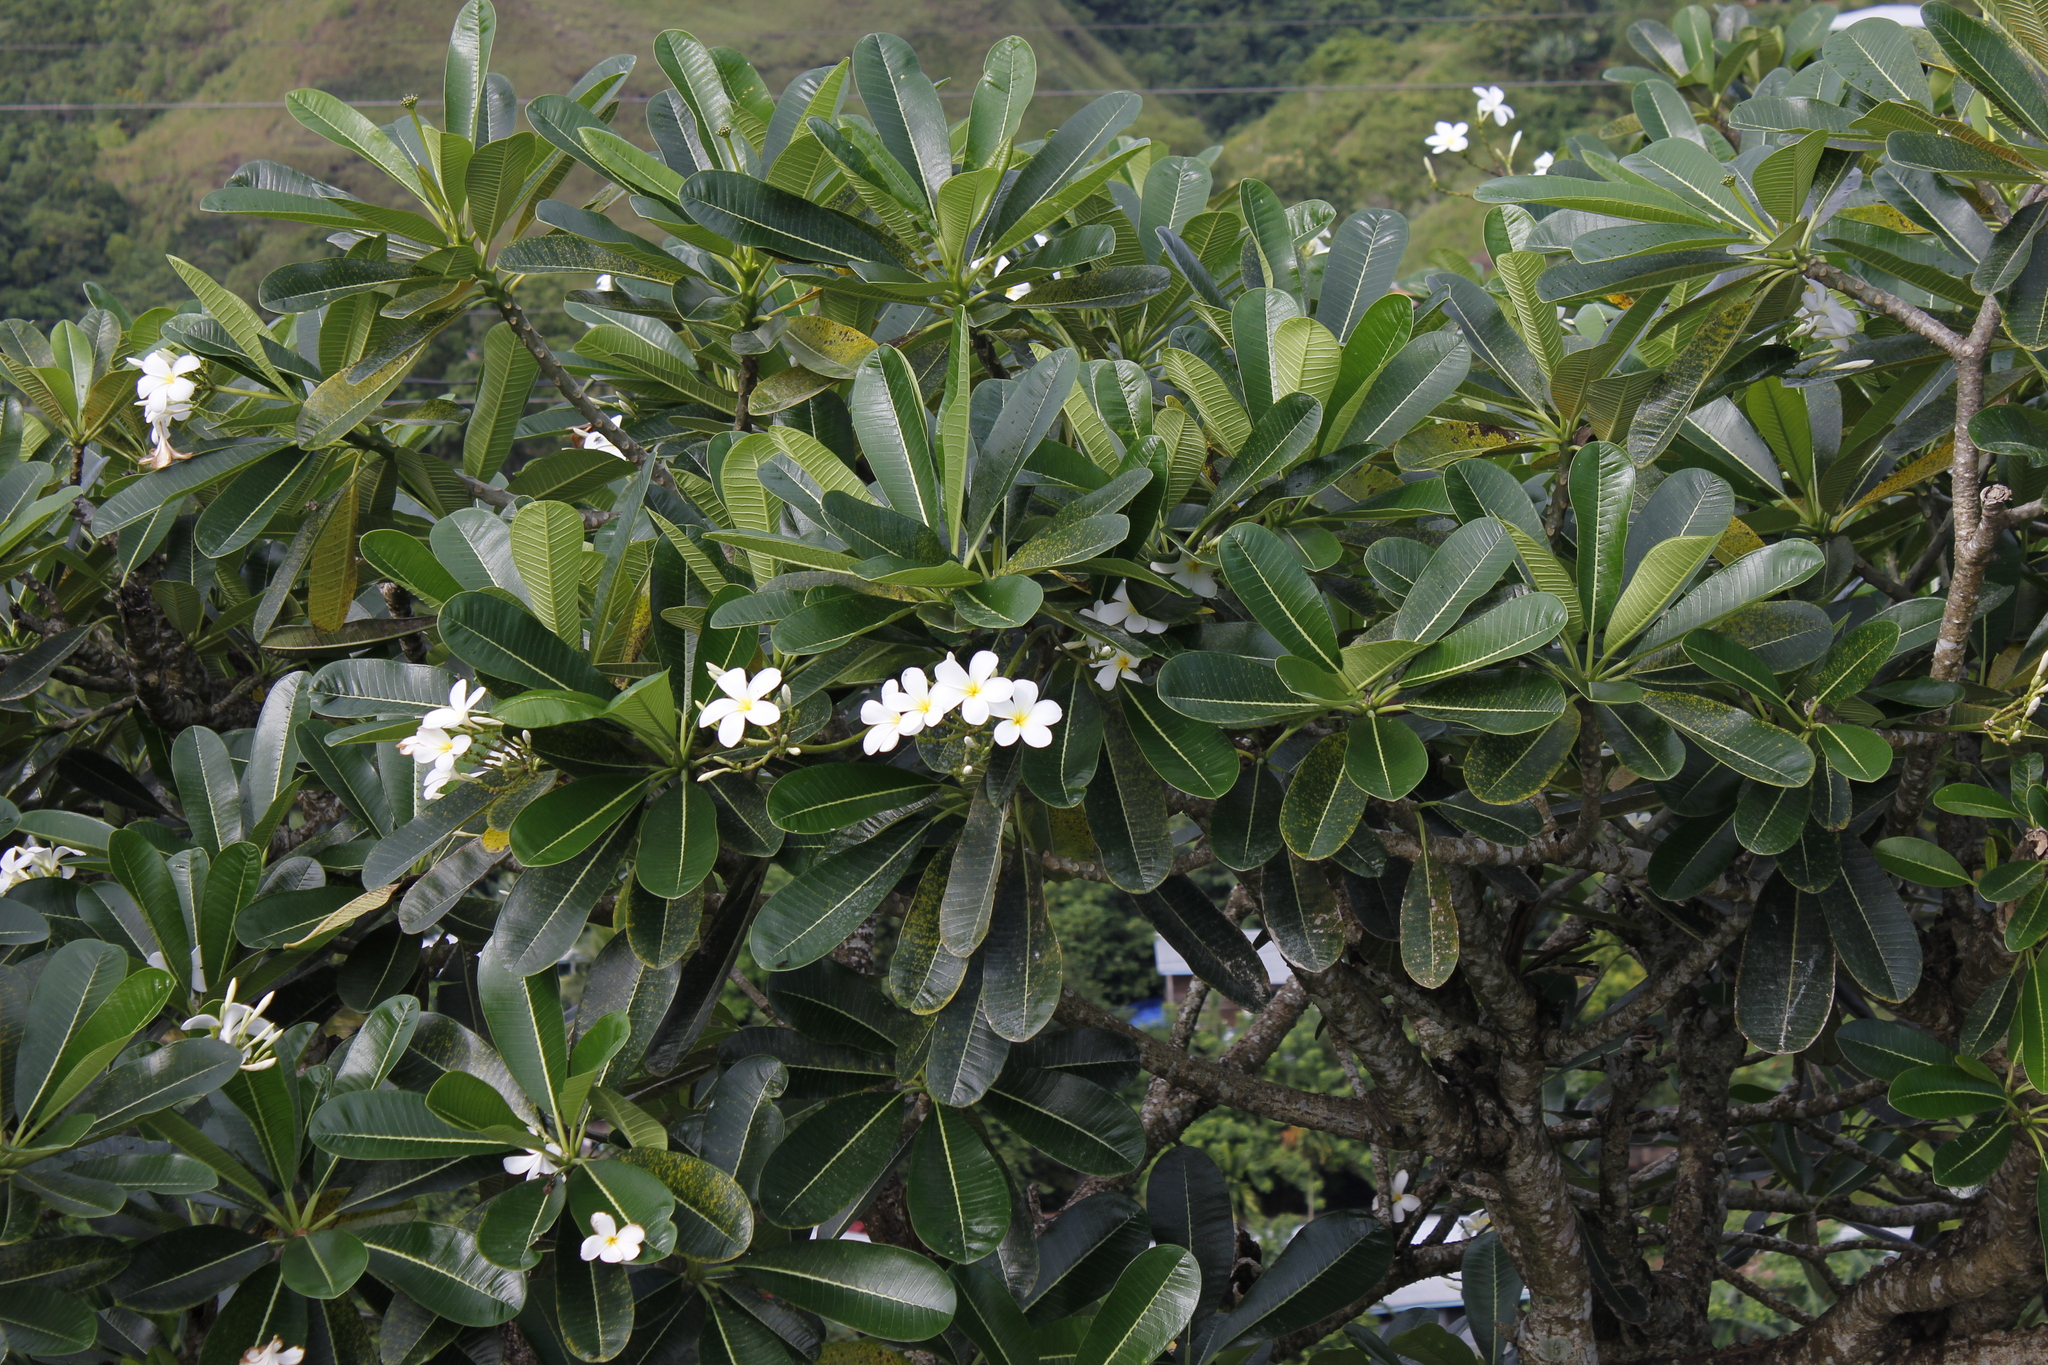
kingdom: Plantae
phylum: Tracheophyta
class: Magnoliopsida
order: Gentianales
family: Apocynaceae
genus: Plumeria
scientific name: Plumeria obtusa
